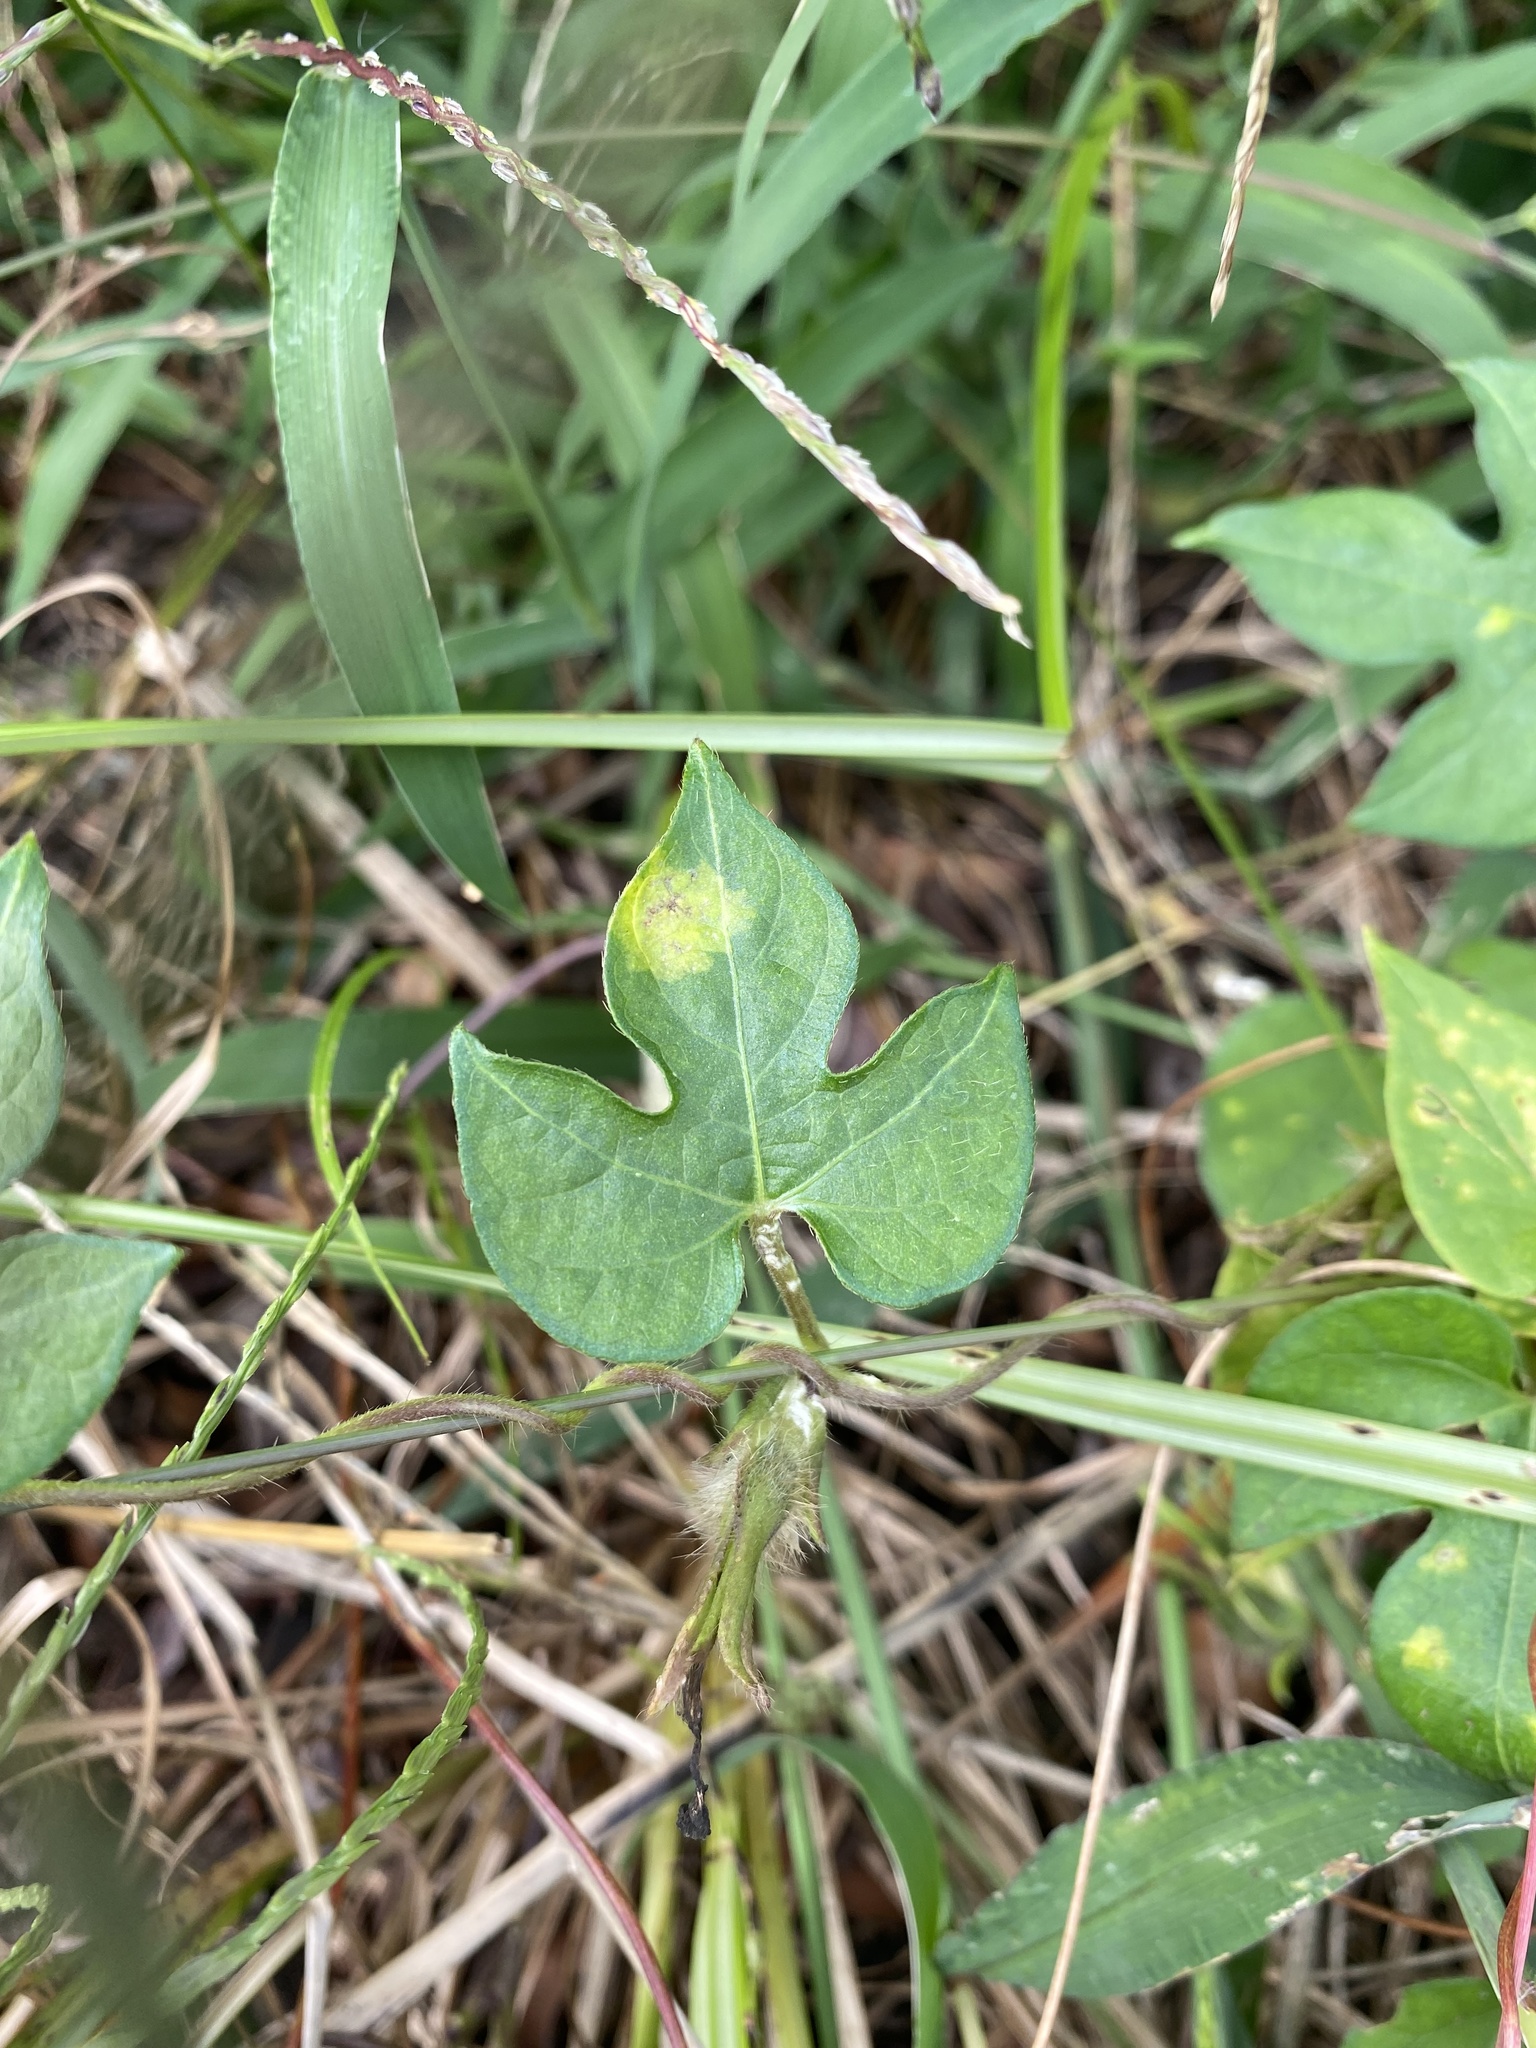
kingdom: Plantae
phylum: Tracheophyta
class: Magnoliopsida
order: Solanales
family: Convolvulaceae
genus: Ipomoea
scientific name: Ipomoea hederacea
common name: Ivy-leaved morning-glory
